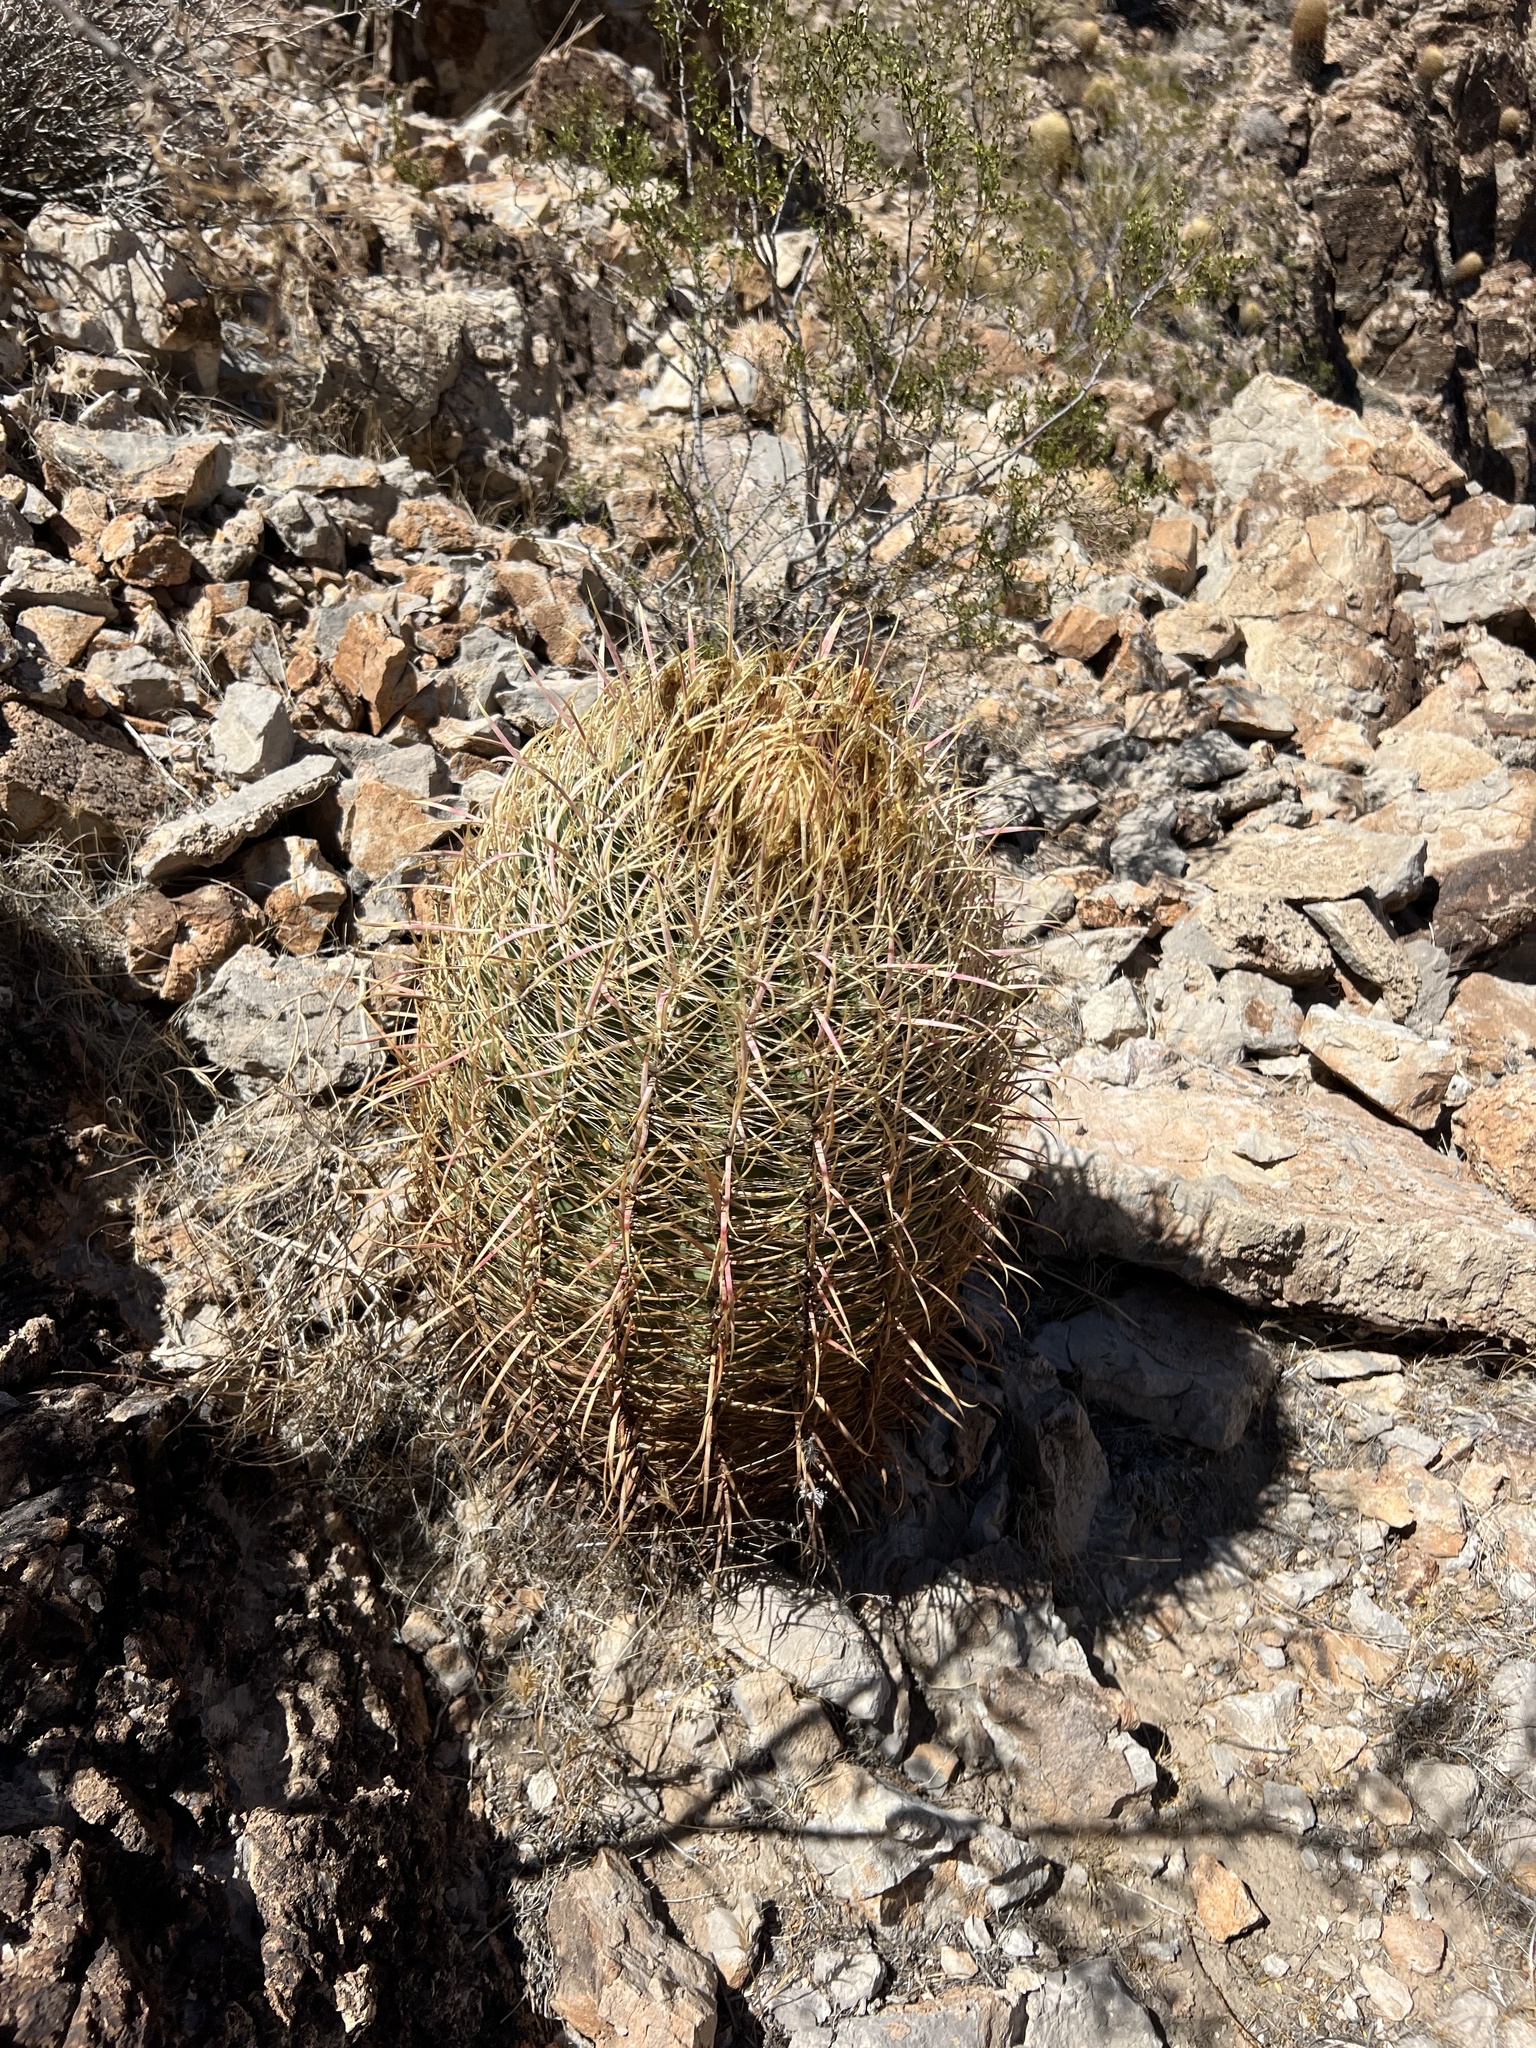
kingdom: Plantae
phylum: Tracheophyta
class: Magnoliopsida
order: Caryophyllales
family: Cactaceae
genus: Ferocactus
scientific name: Ferocactus cylindraceus
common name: California barrel cactus
